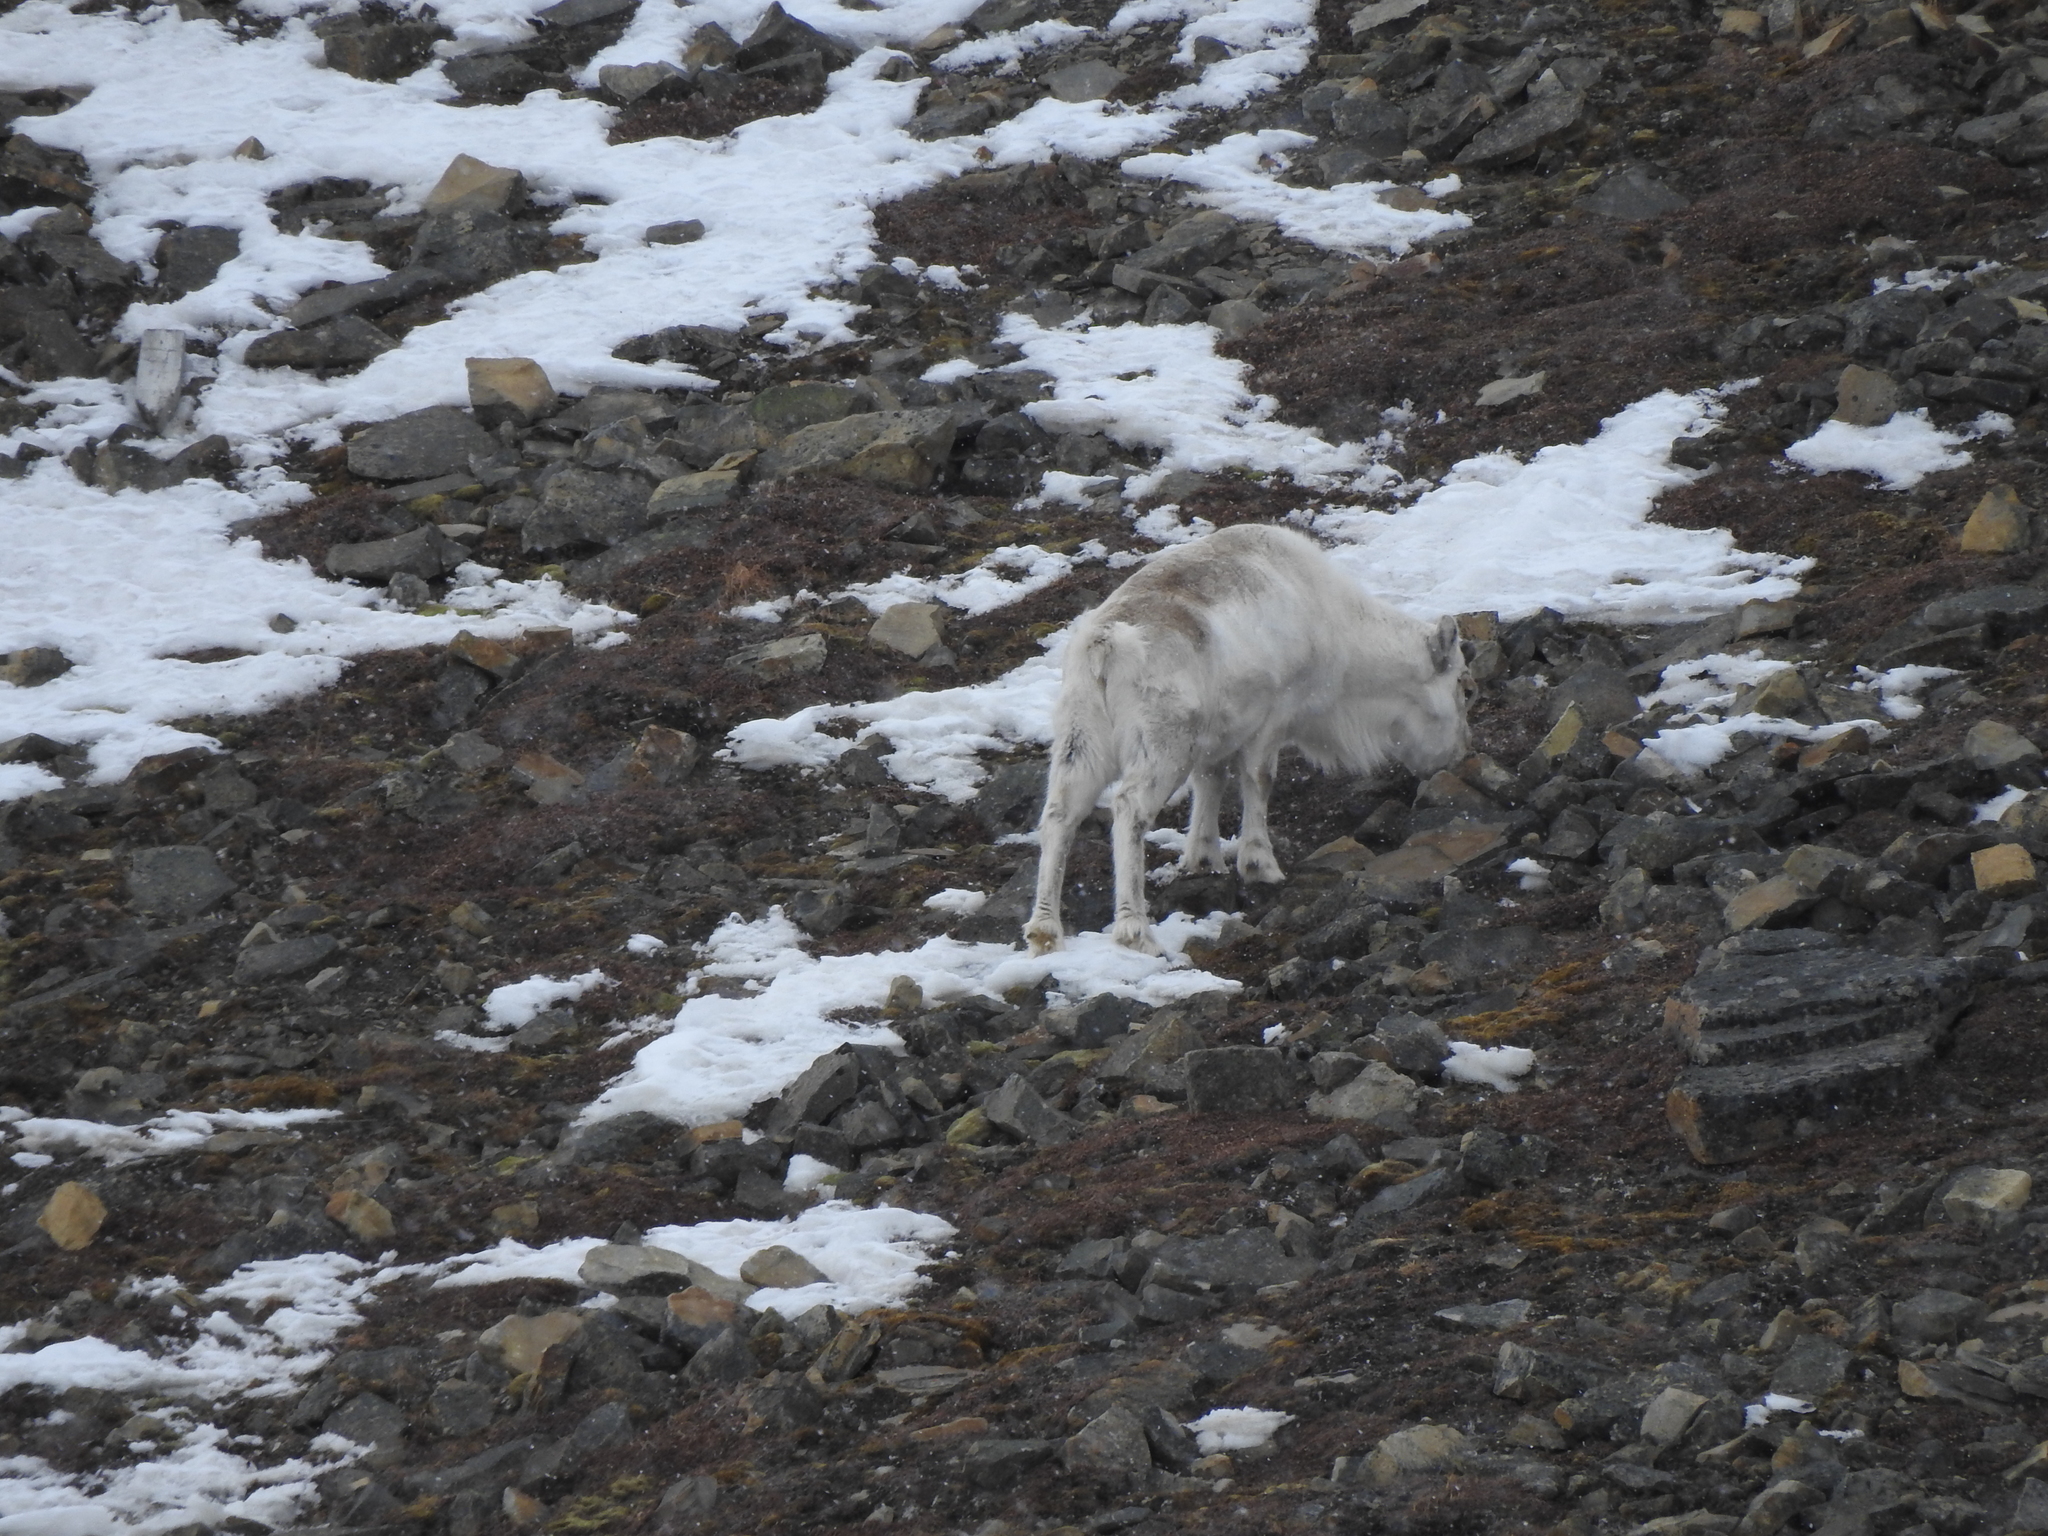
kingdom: Animalia
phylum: Chordata
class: Mammalia
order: Artiodactyla
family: Cervidae
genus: Rangifer
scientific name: Rangifer tarandus
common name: Reindeer
